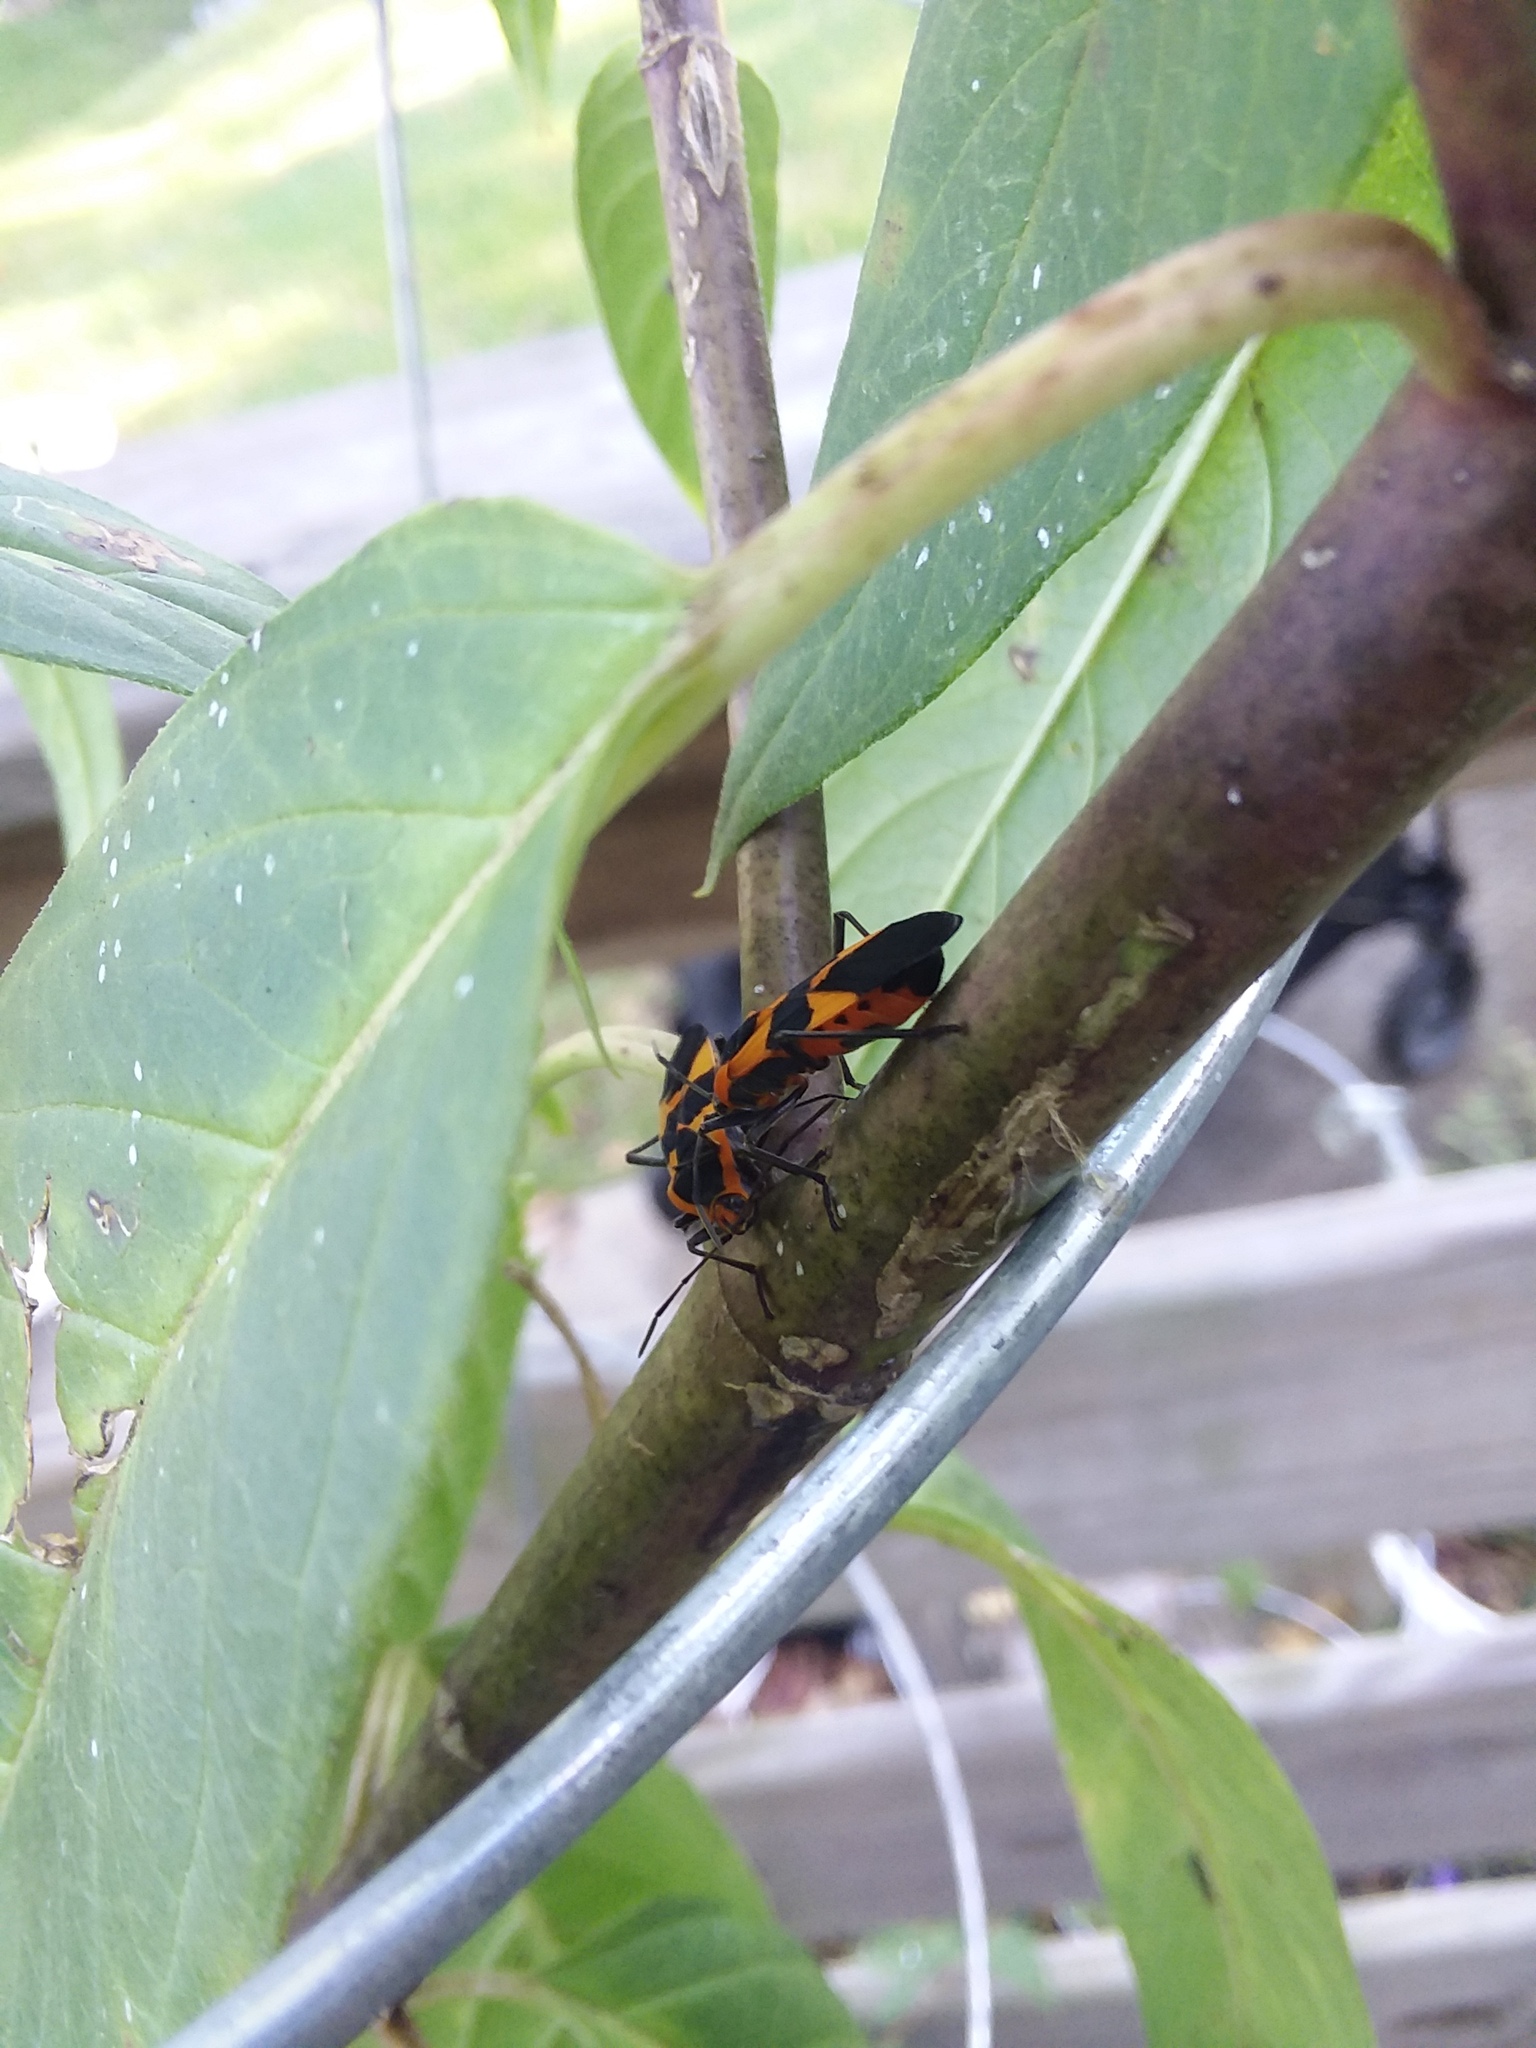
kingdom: Animalia
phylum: Arthropoda
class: Insecta
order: Hemiptera
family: Lygaeidae
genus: Oncopeltus
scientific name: Oncopeltus fasciatus
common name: Large milkweed bug
